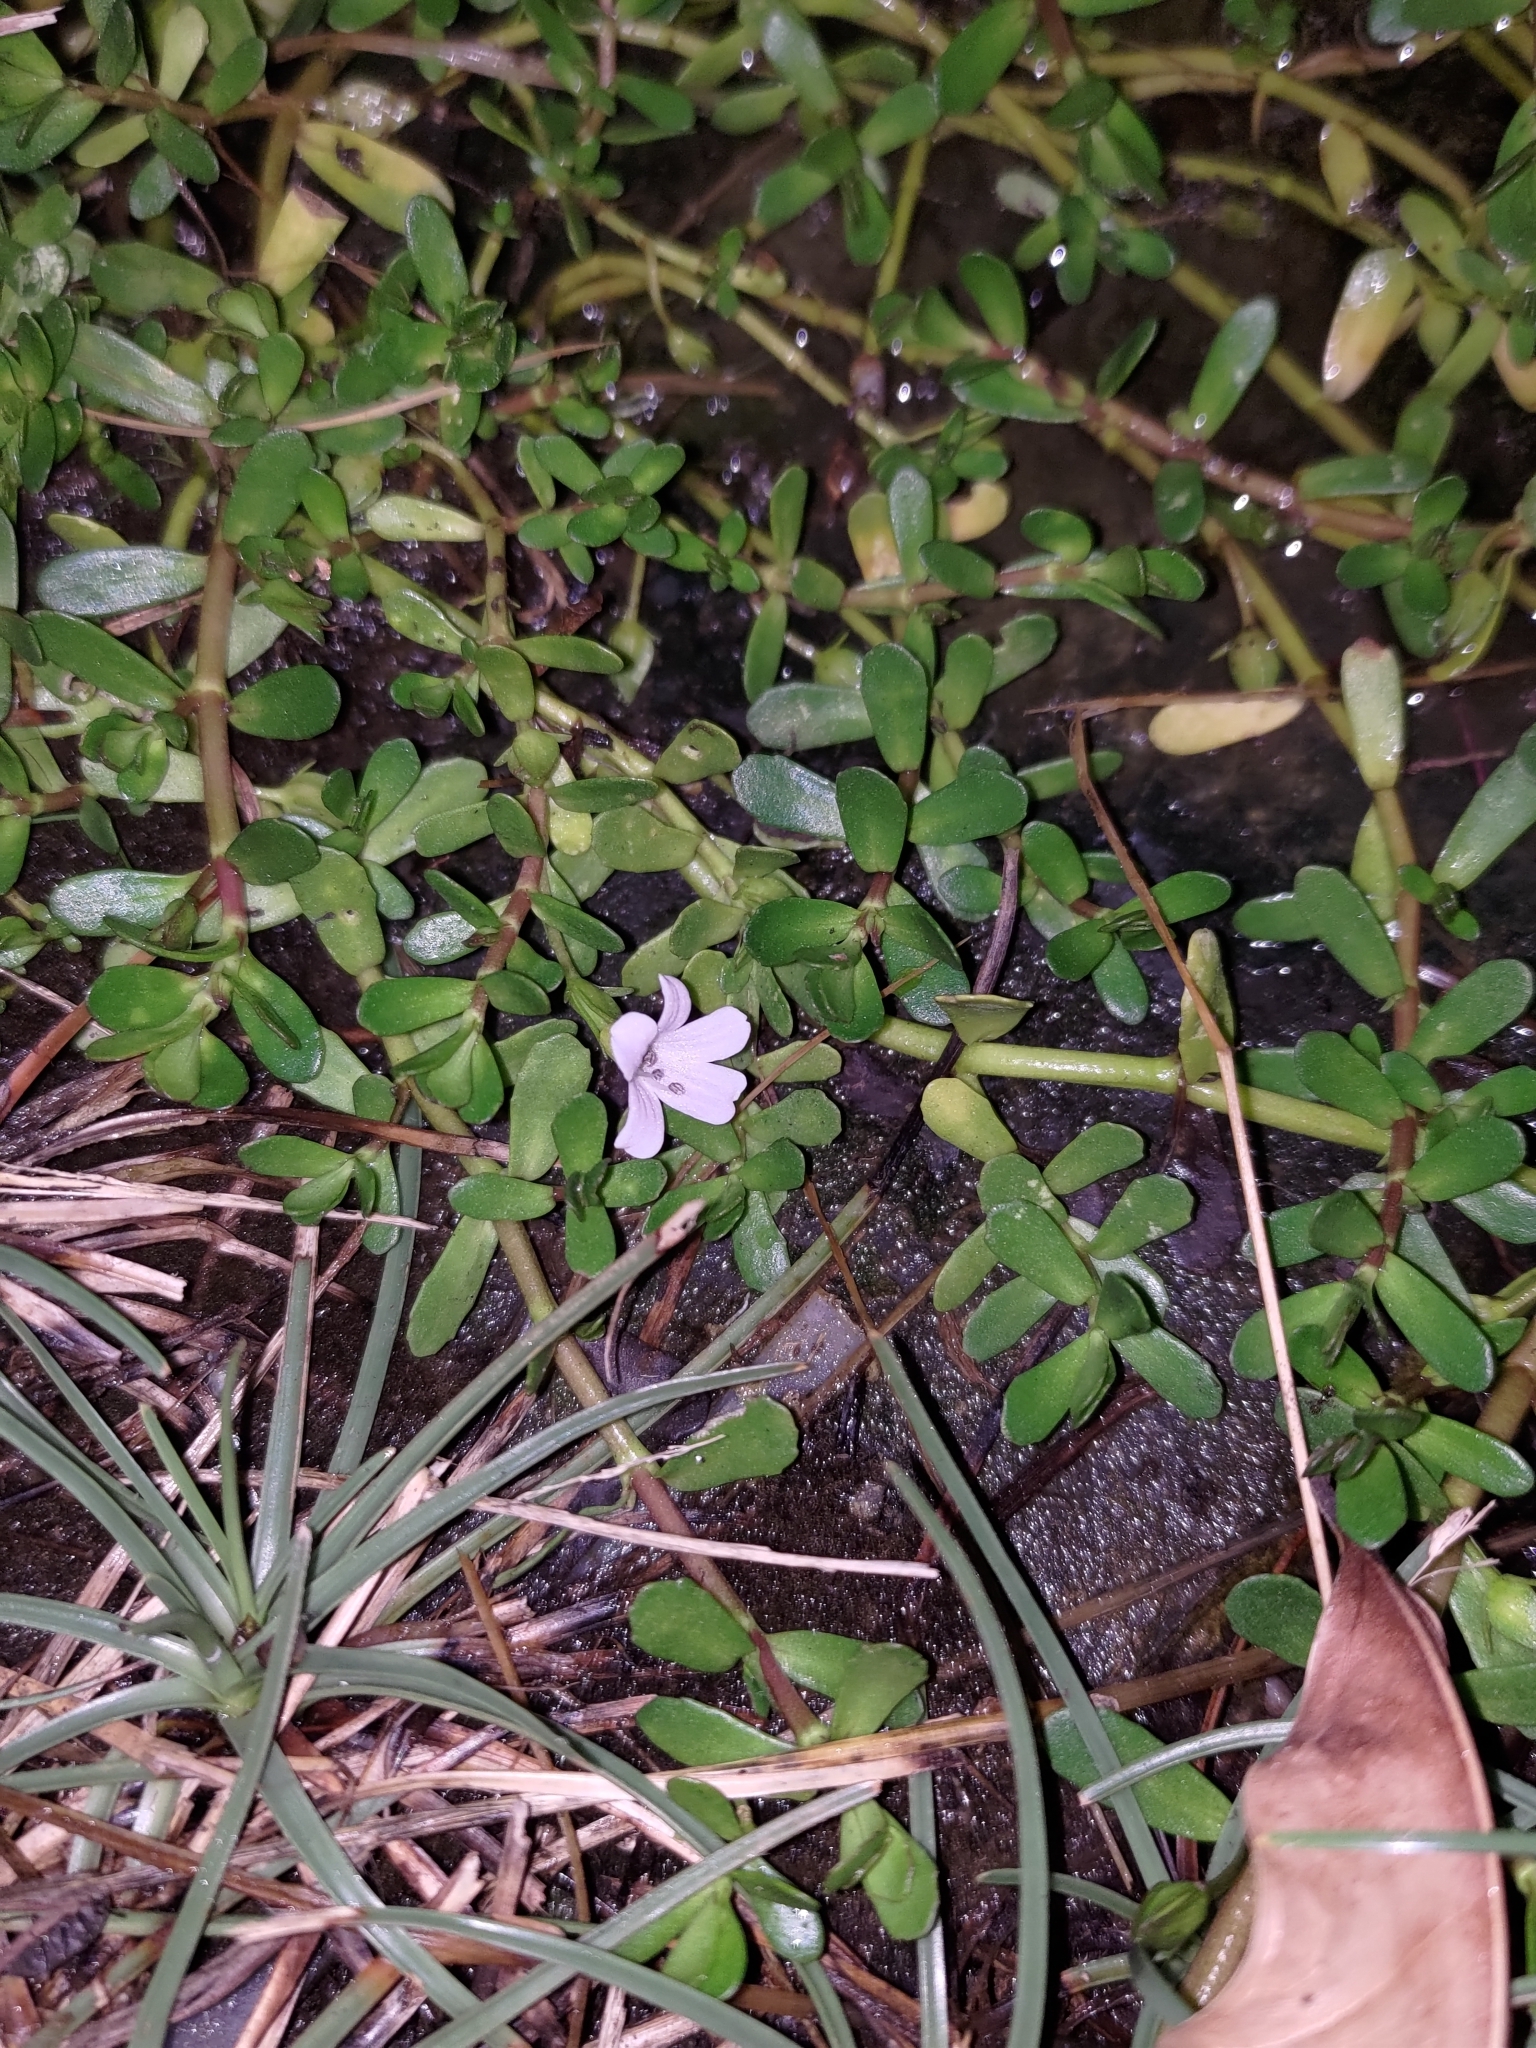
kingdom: Plantae
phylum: Tracheophyta
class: Magnoliopsida
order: Lamiales
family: Plantaginaceae
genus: Bacopa
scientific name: Bacopa monnieri
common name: Indian-pennywort
